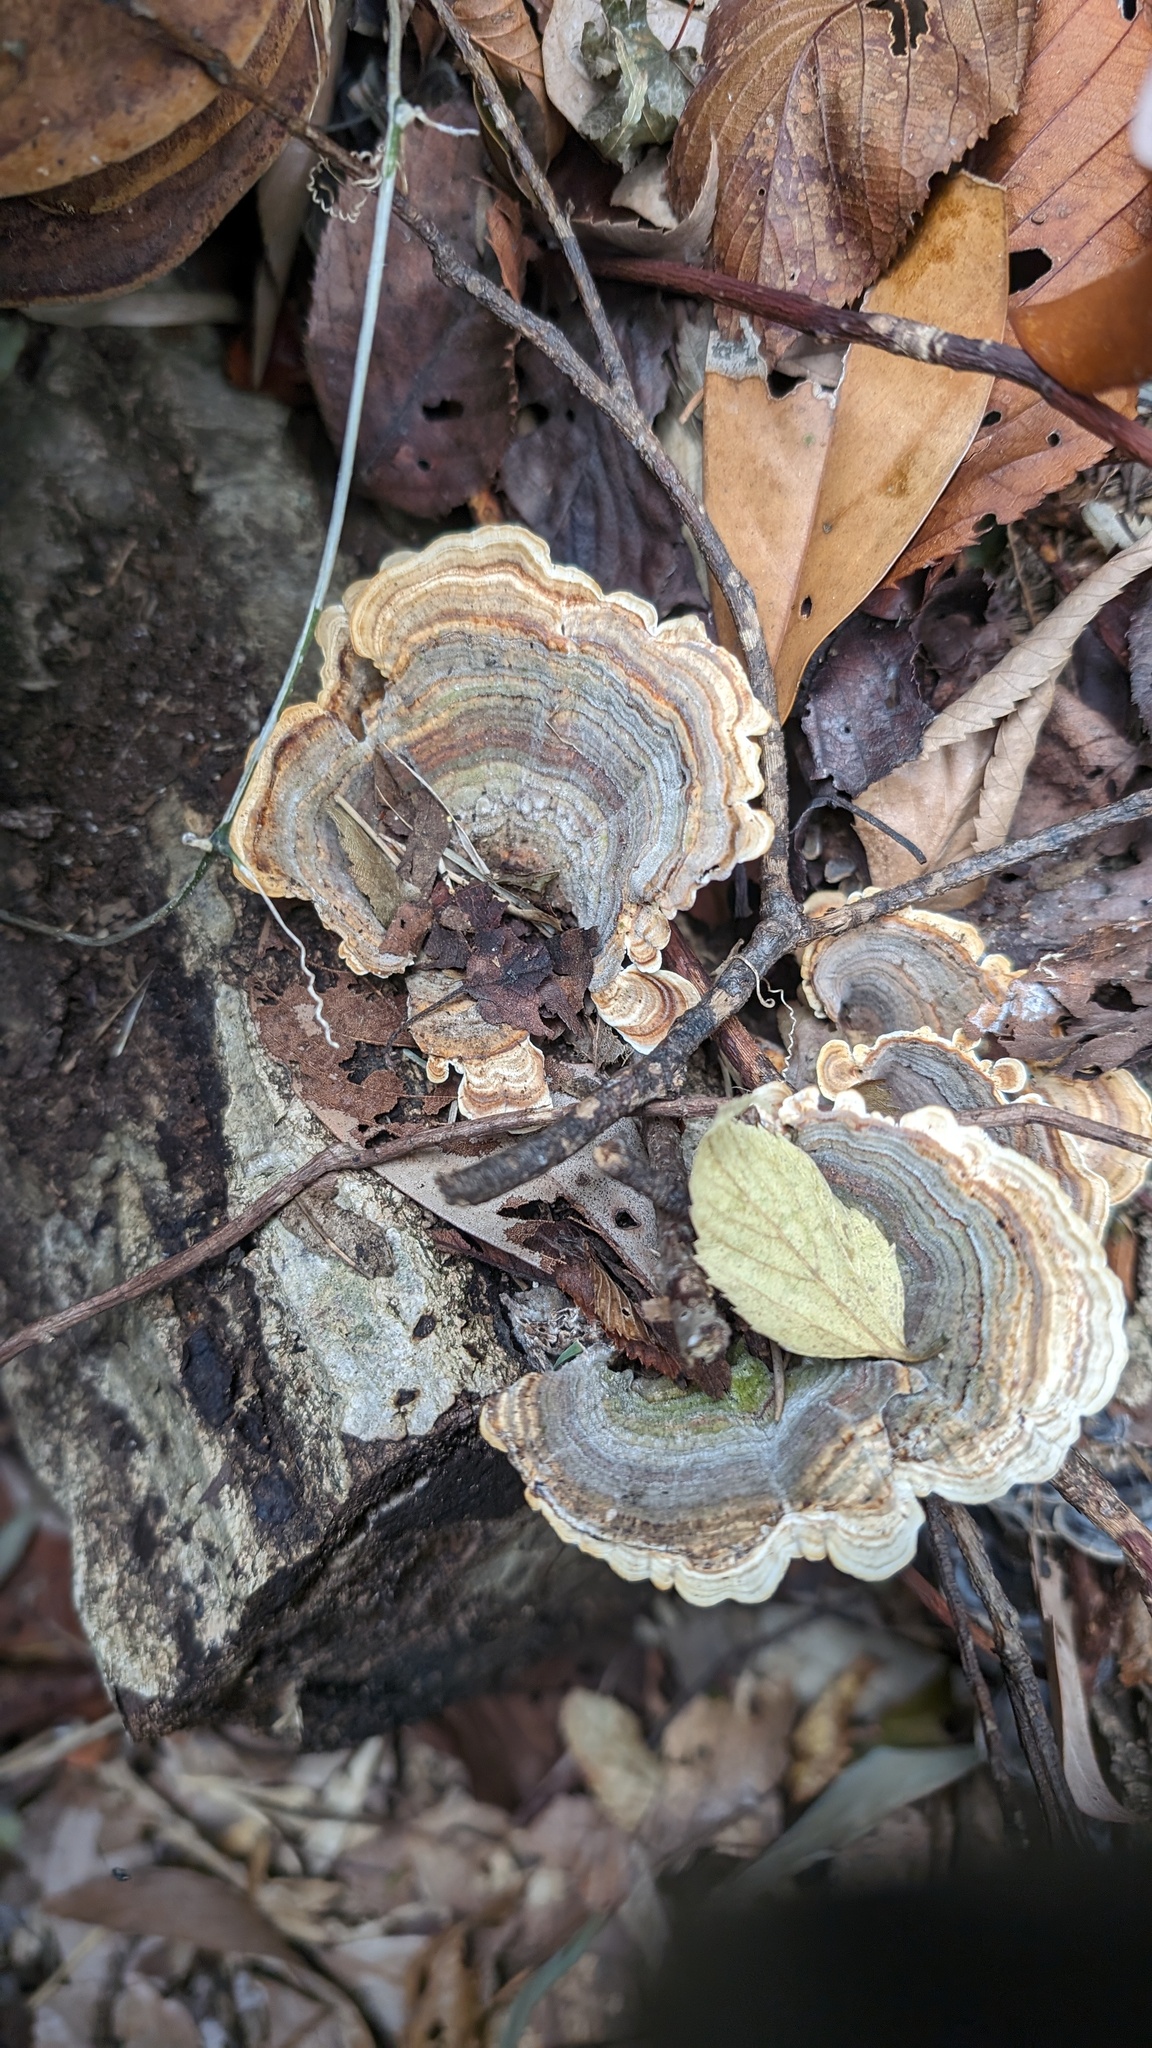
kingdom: Fungi
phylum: Basidiomycota
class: Agaricomycetes
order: Polyporales
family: Polyporaceae
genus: Microporus
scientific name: Microporus affinis
